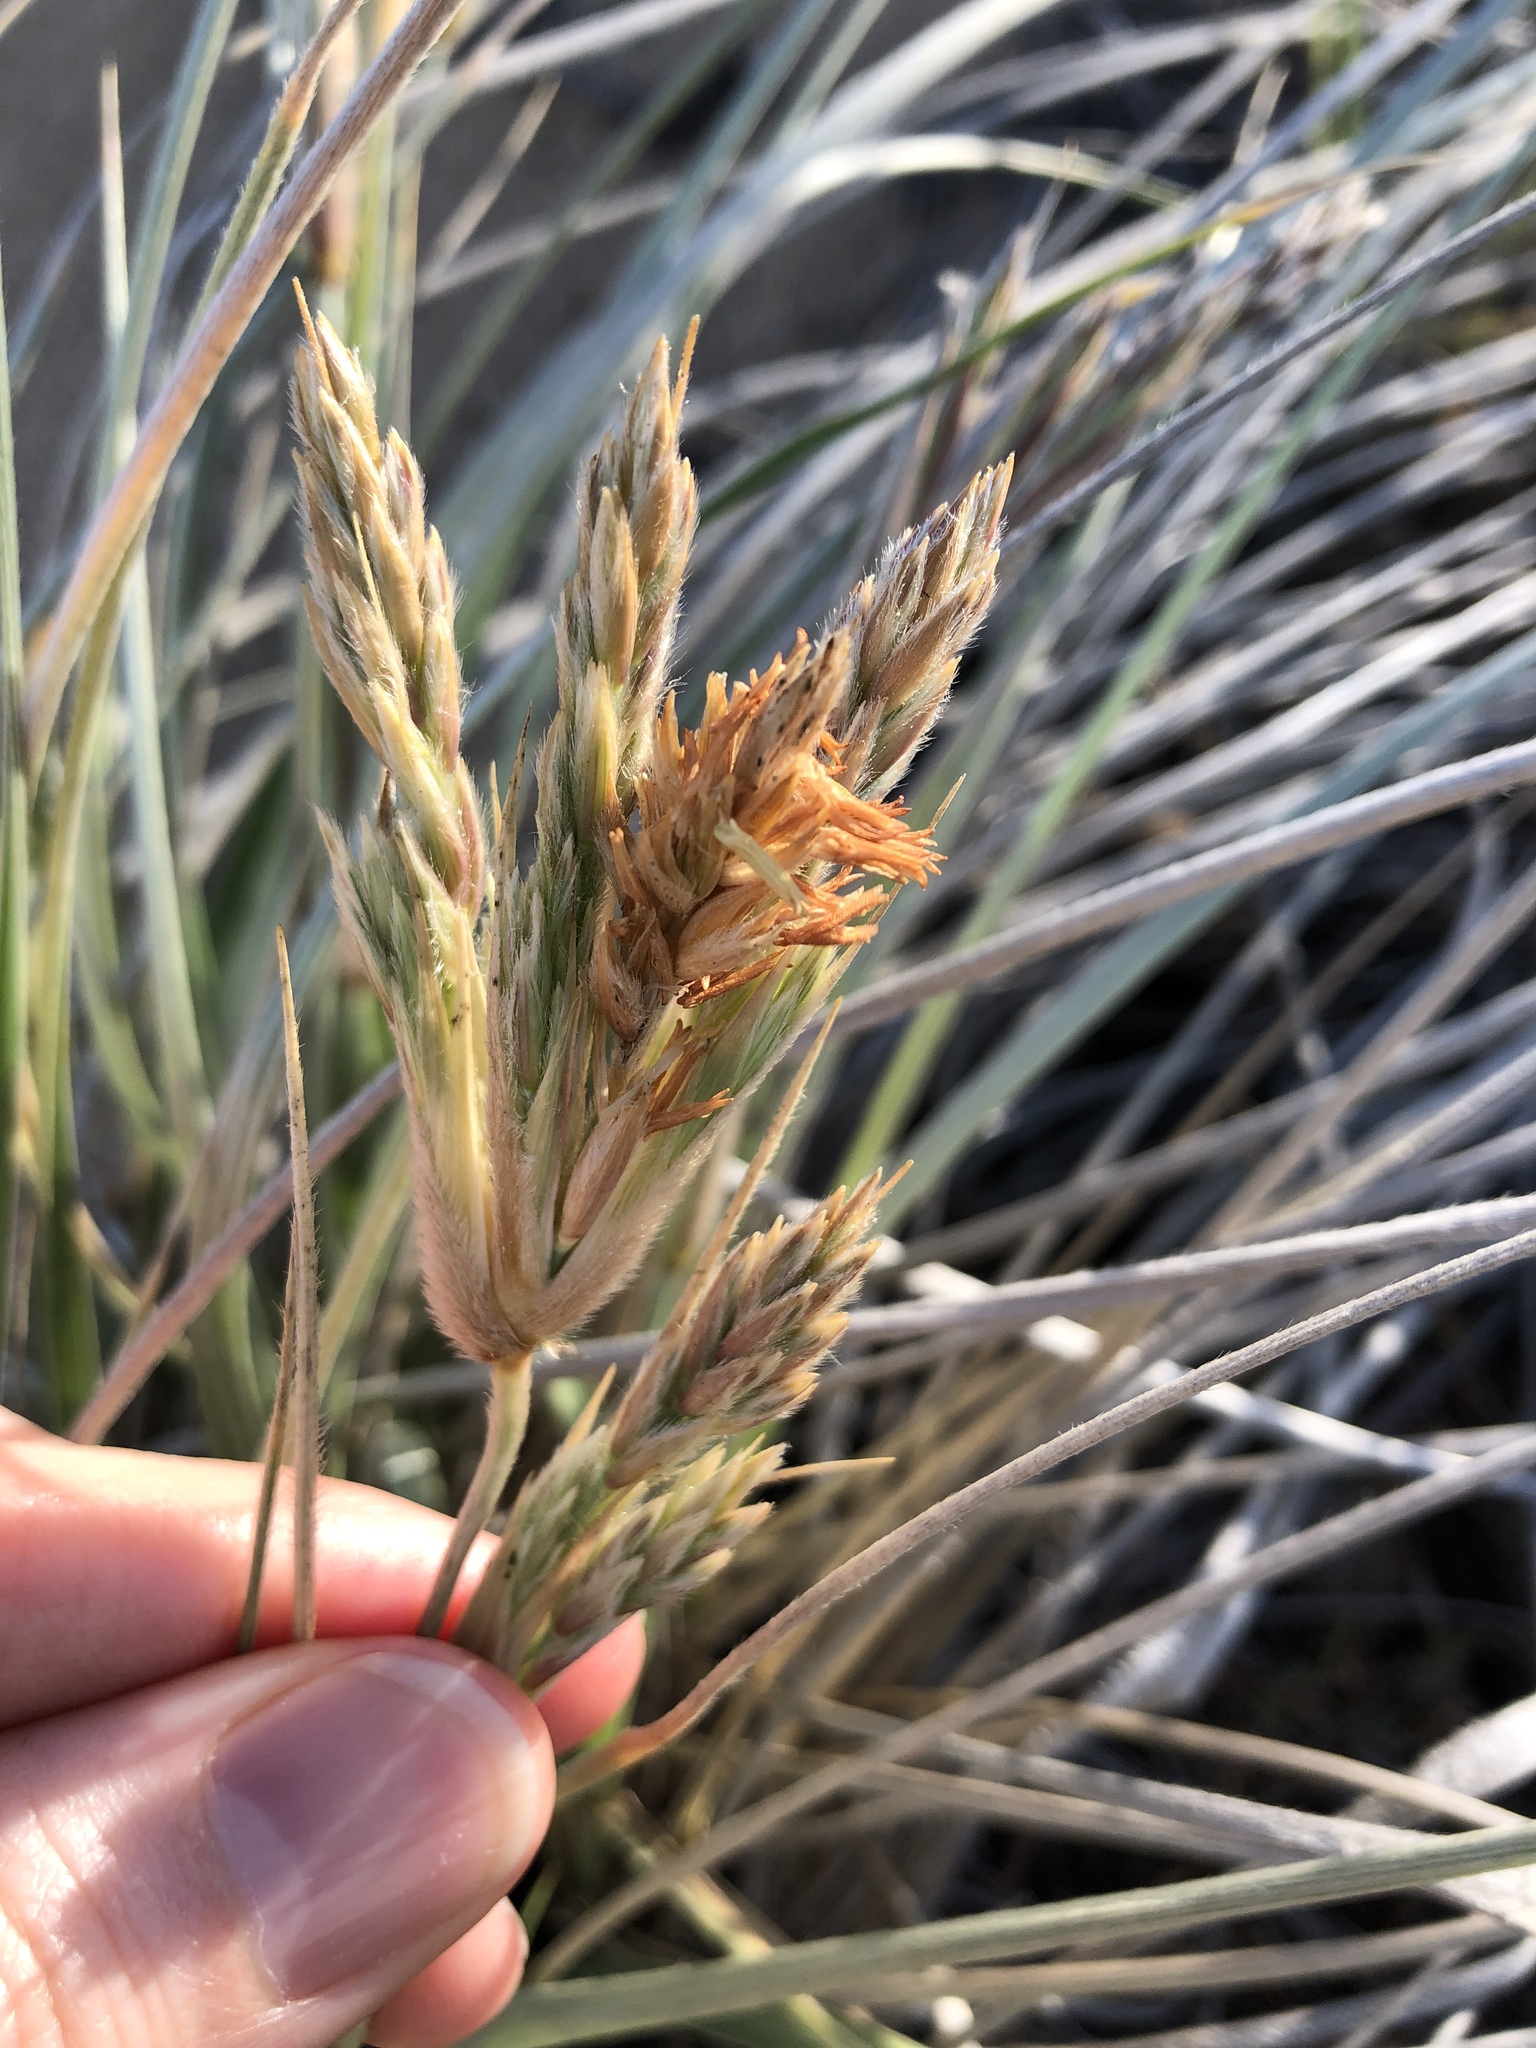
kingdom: Plantae
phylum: Tracheophyta
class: Liliopsida
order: Poales
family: Poaceae
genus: Spinifex
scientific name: Spinifex sericeus
